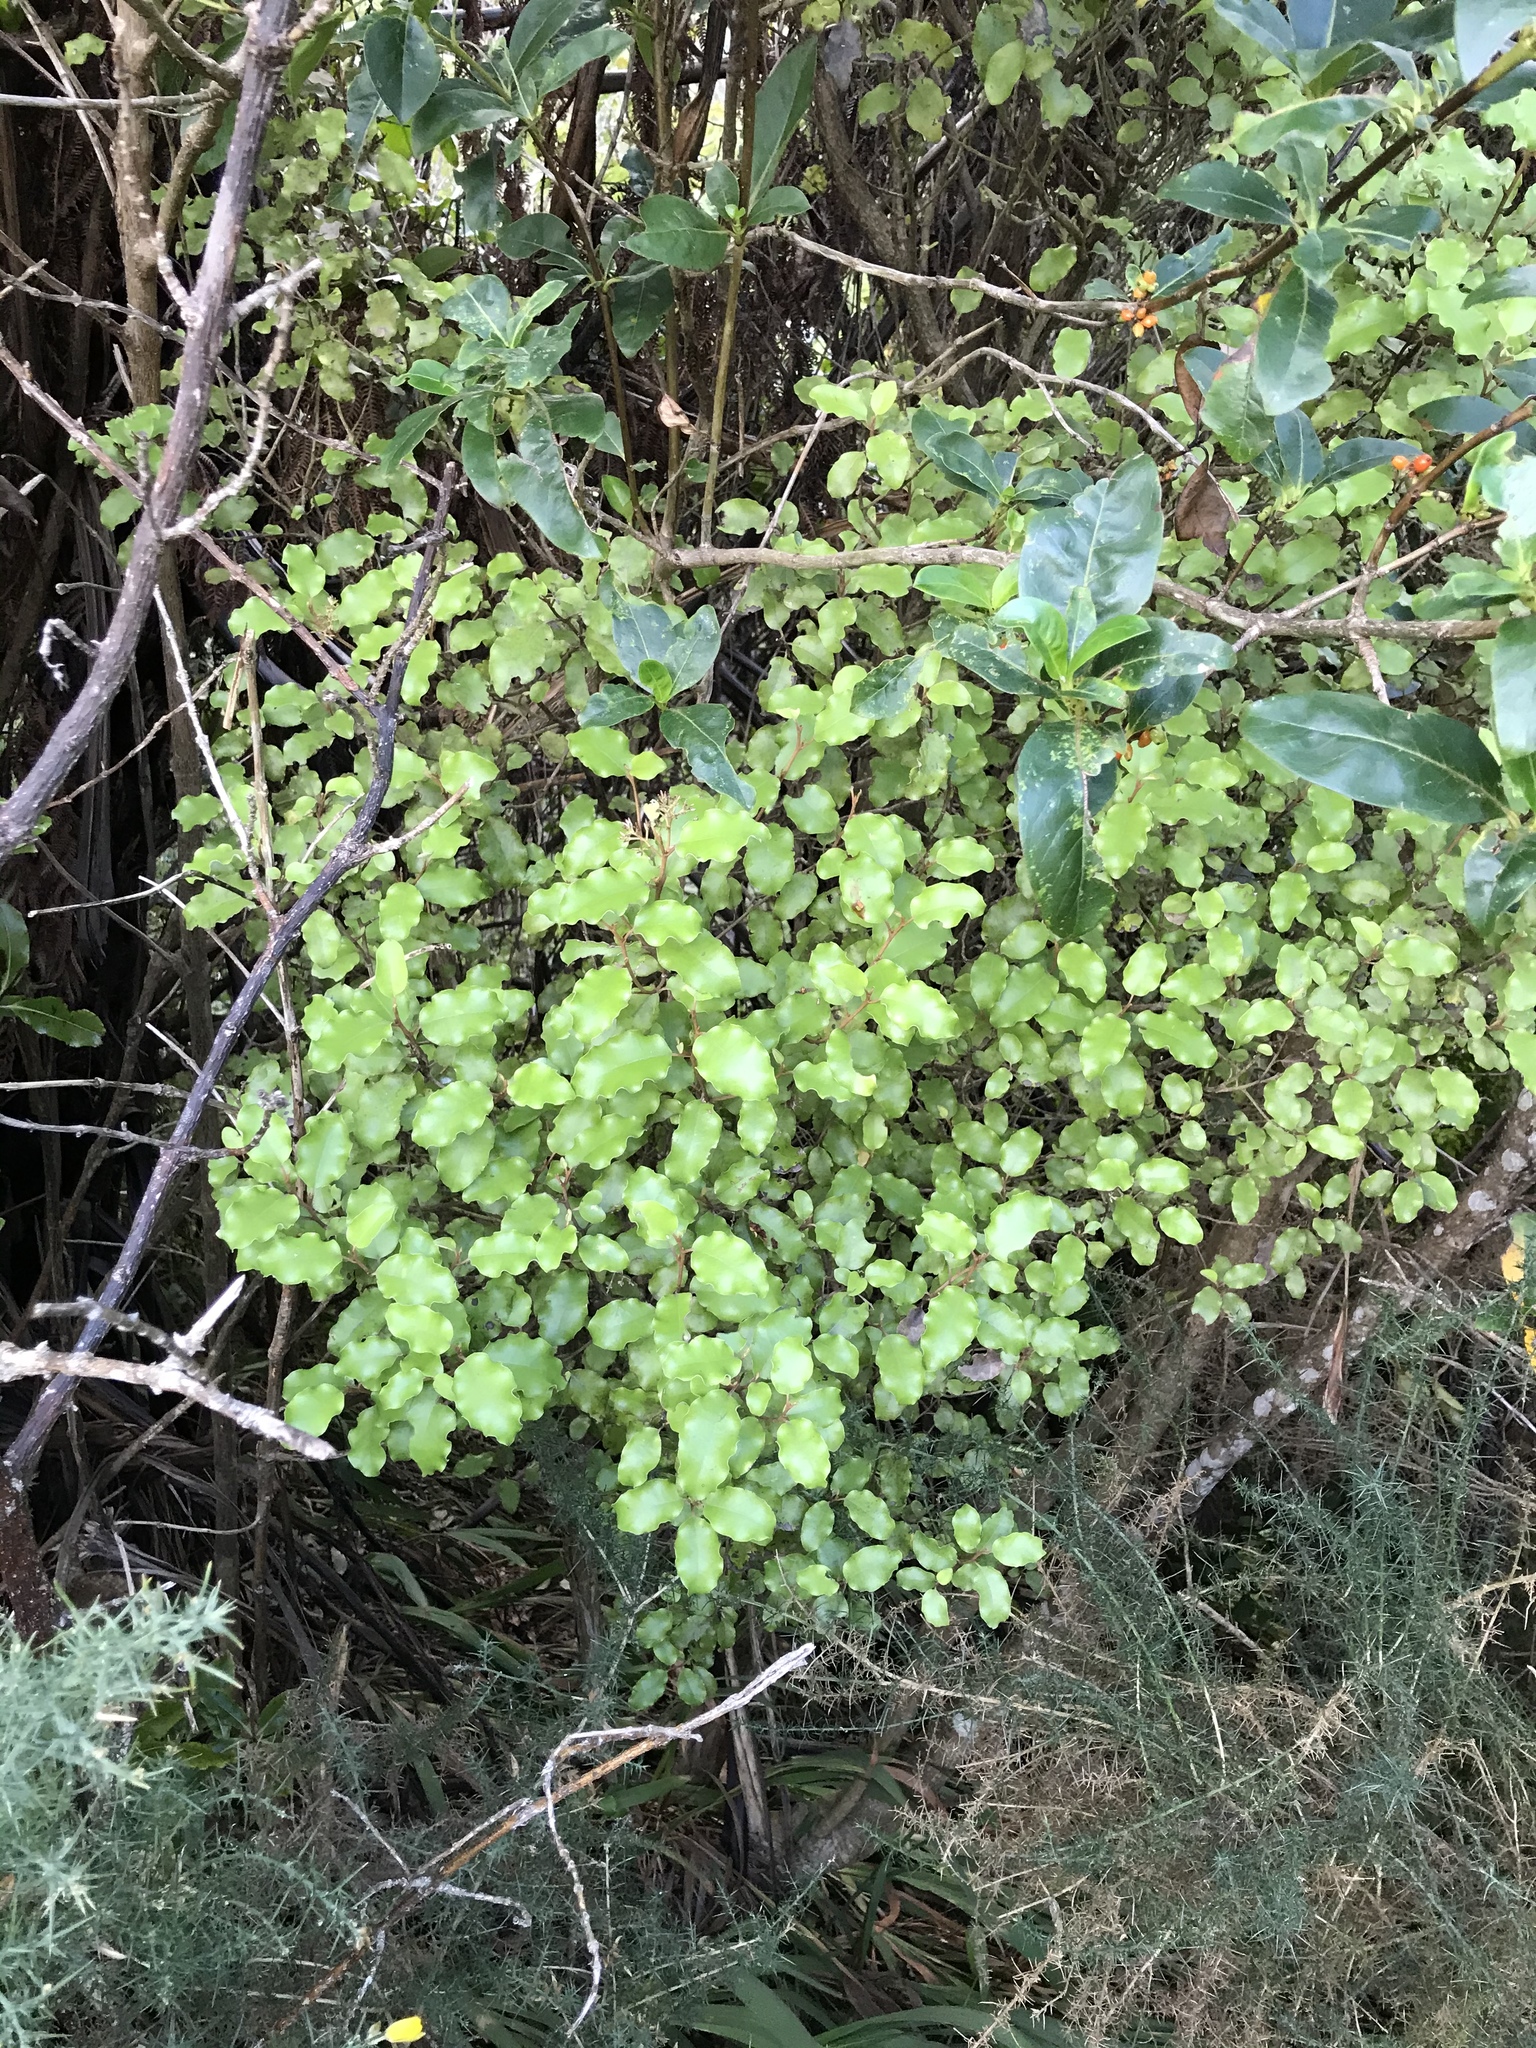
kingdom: Plantae
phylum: Tracheophyta
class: Magnoliopsida
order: Asterales
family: Asteraceae
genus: Olearia
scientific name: Olearia paniculata
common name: Akiraho
